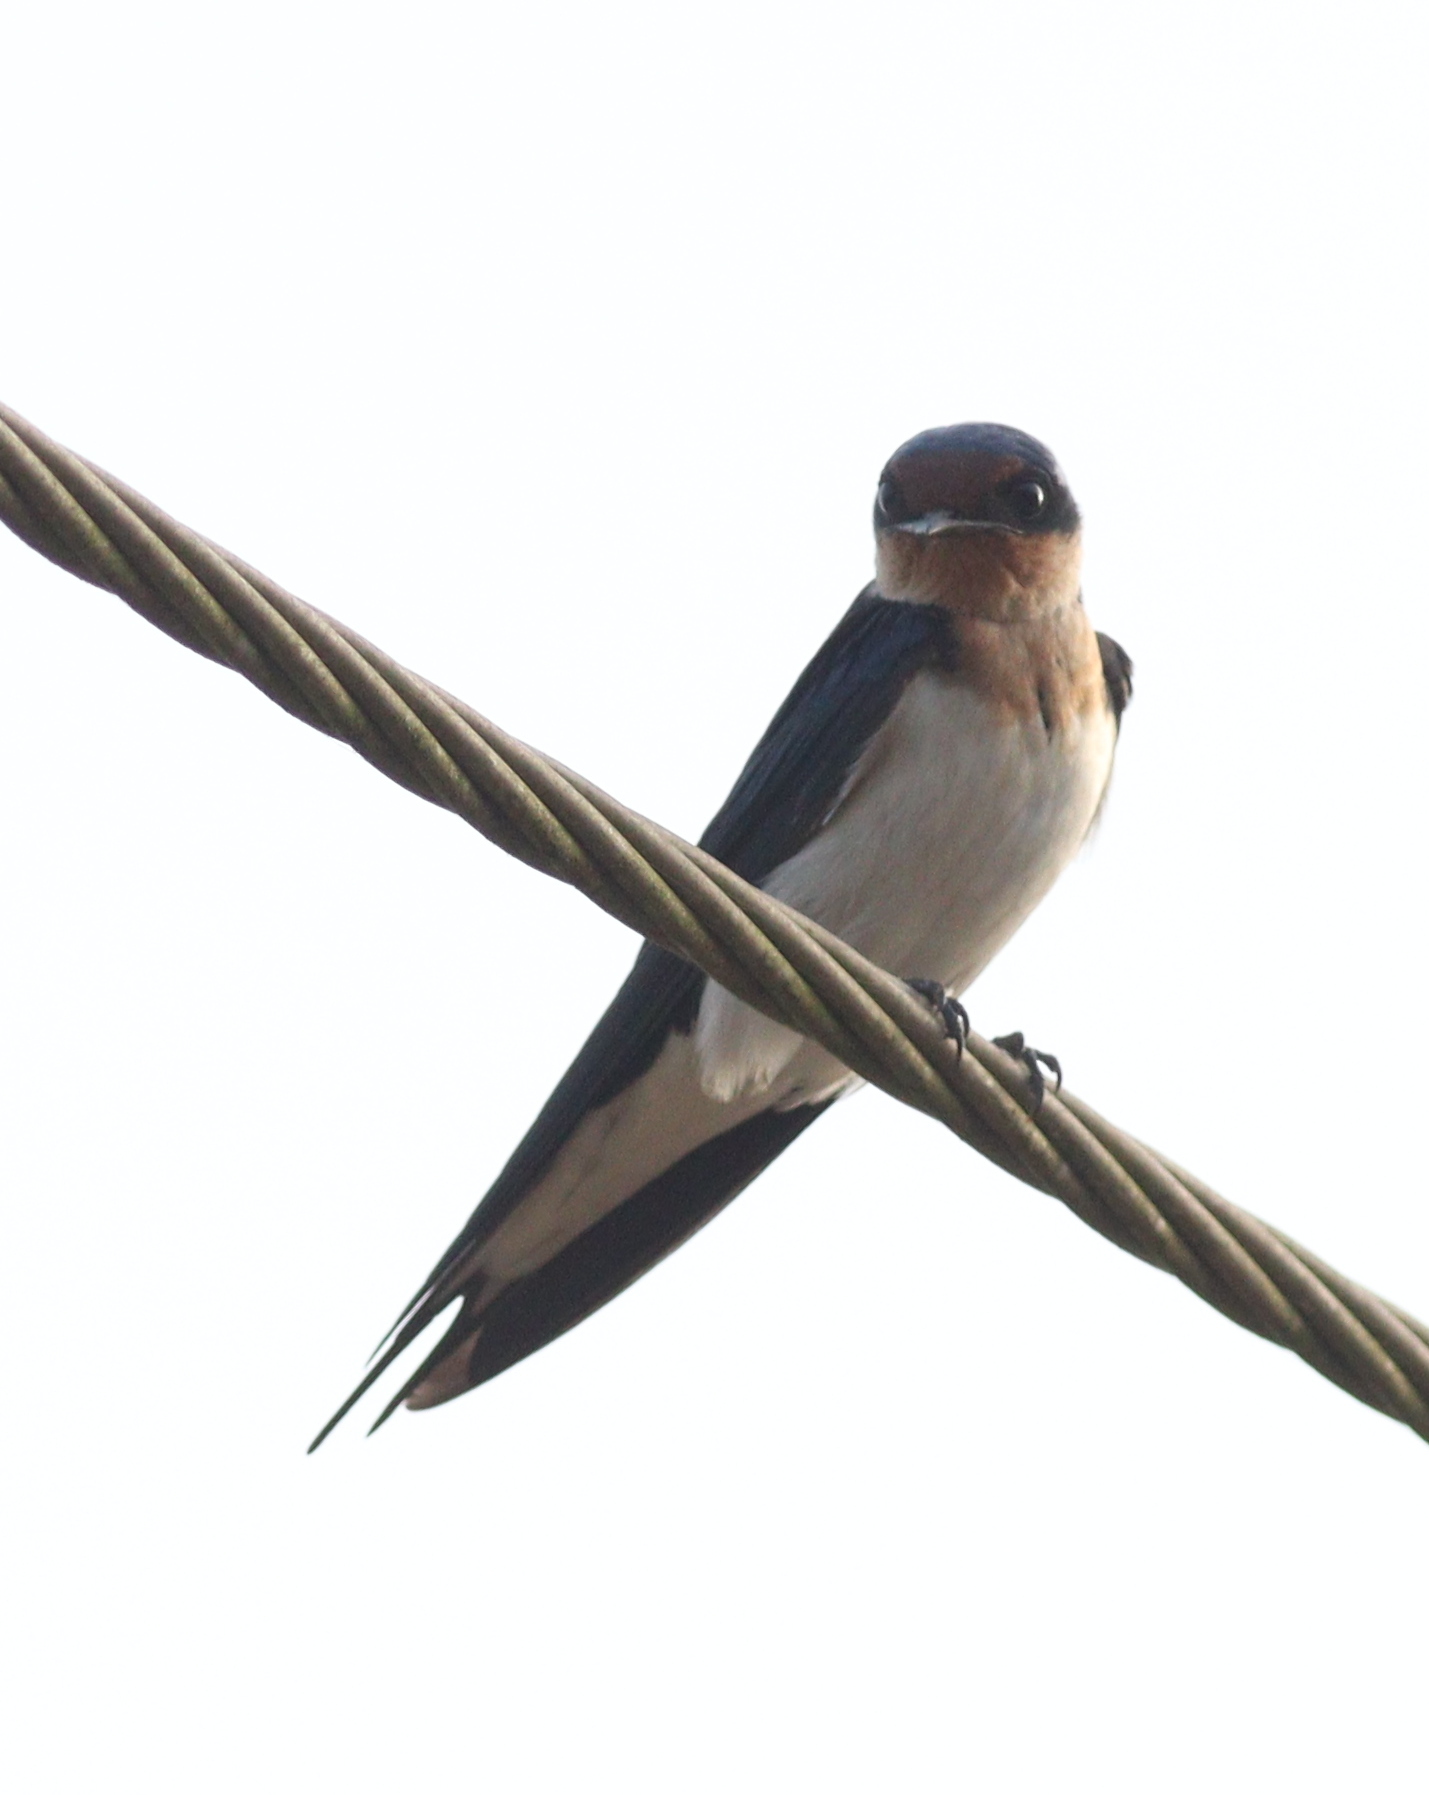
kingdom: Animalia
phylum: Chordata
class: Aves
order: Passeriformes
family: Hirundinidae
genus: Hirundo
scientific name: Hirundo aethiopica
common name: Ethiopian swallow
